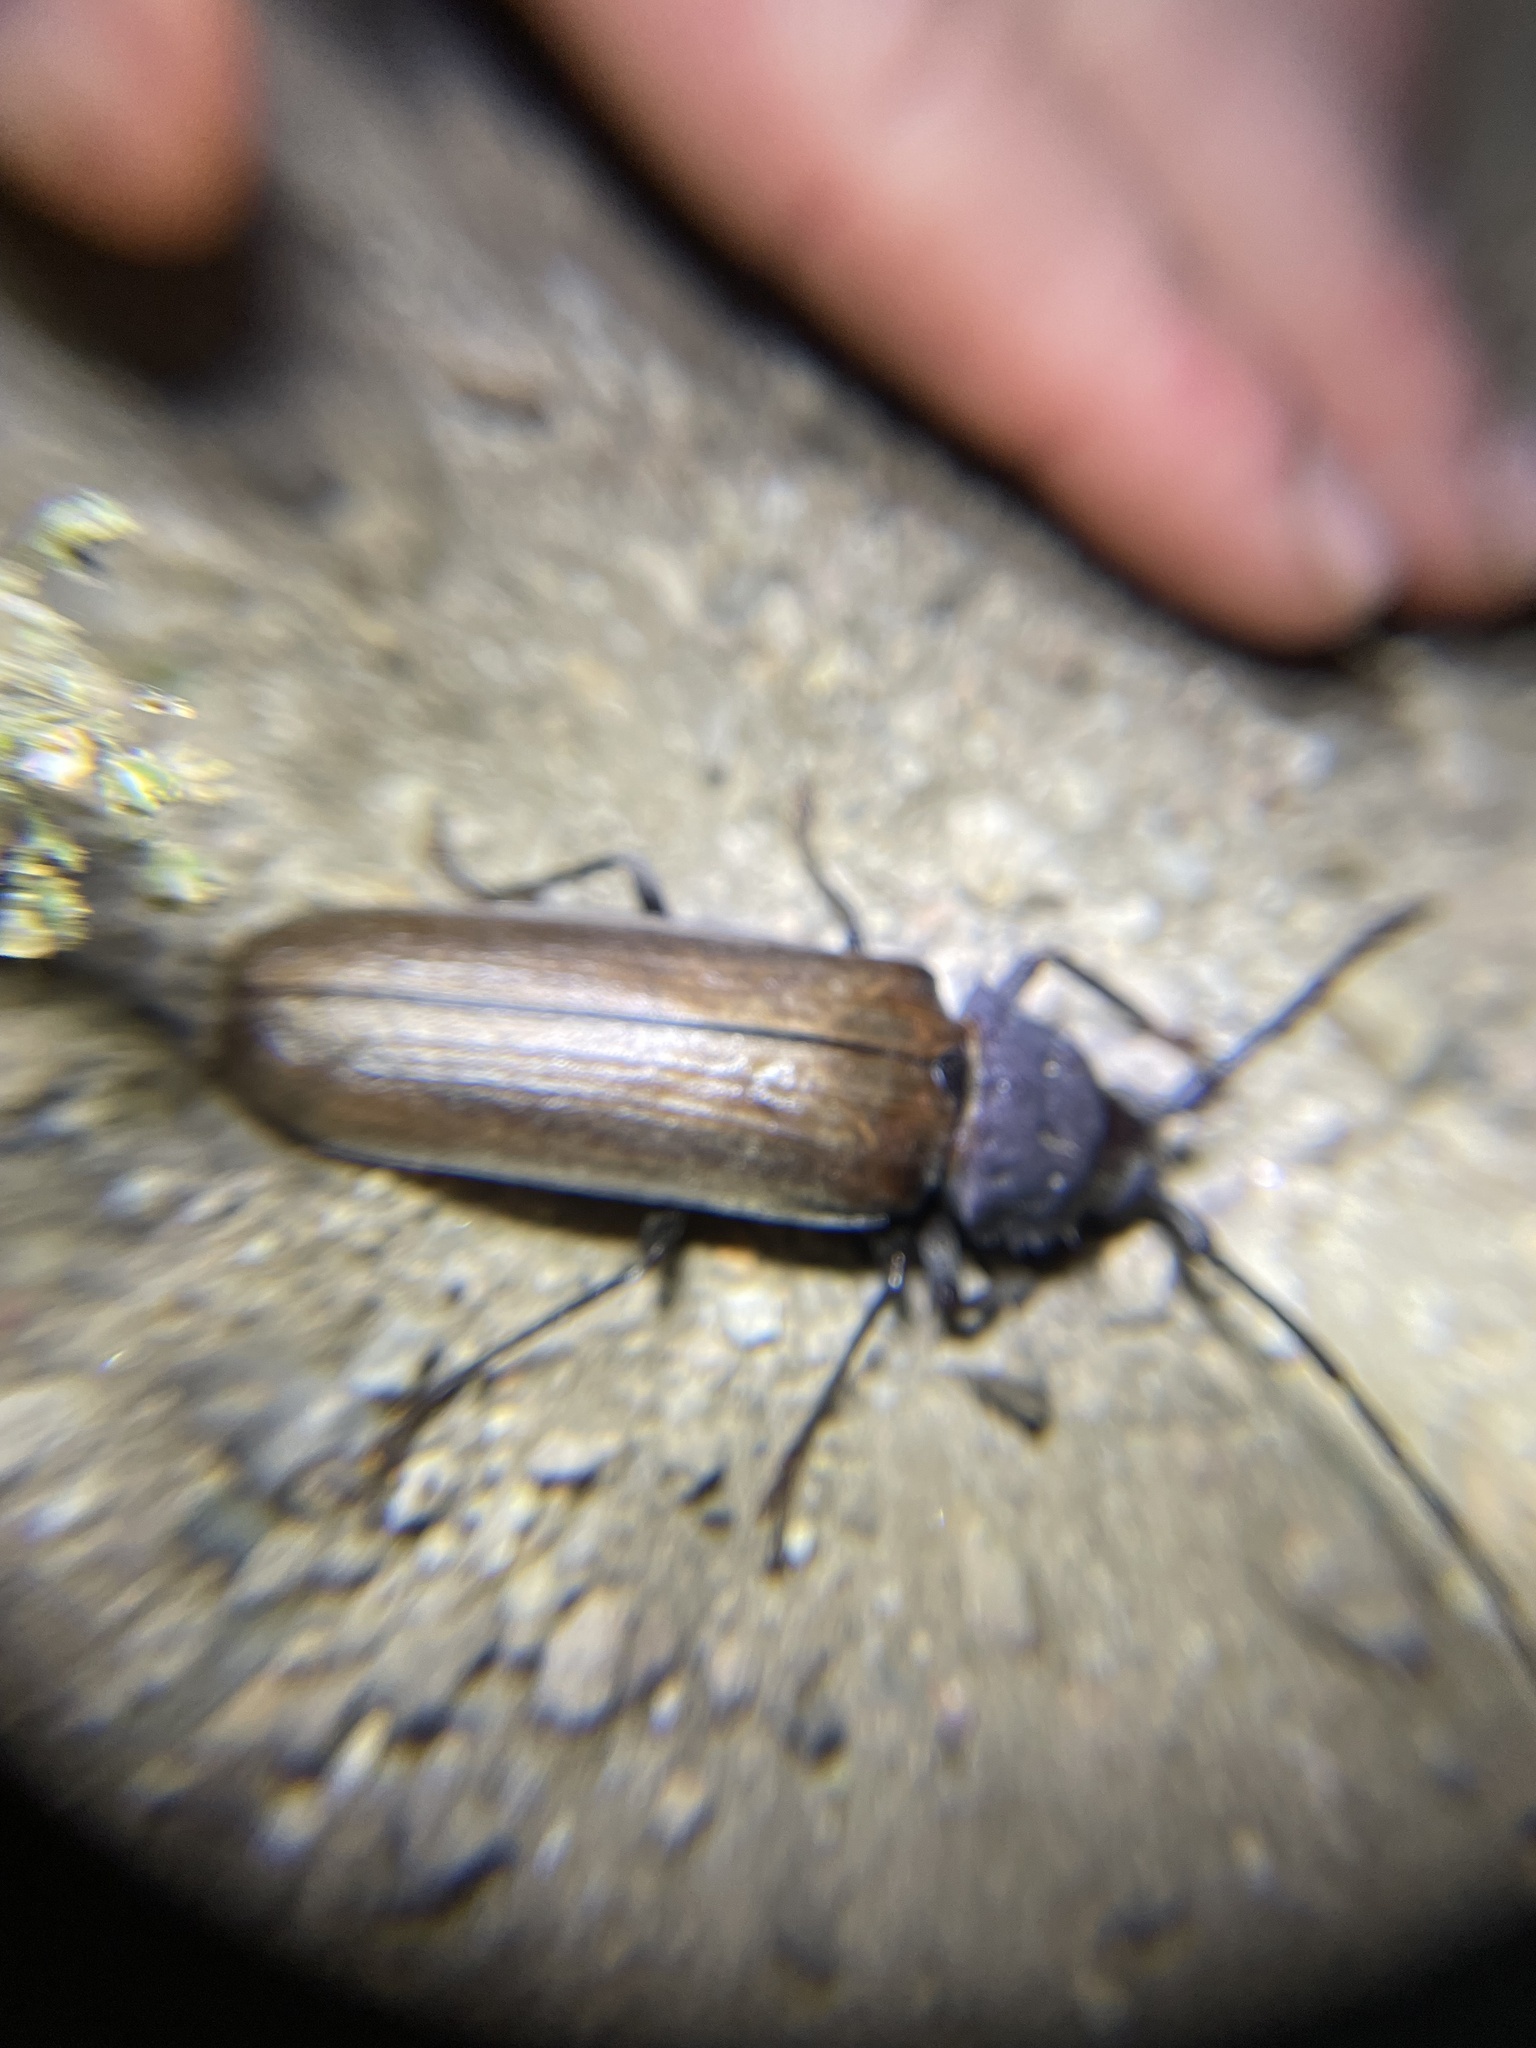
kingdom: Animalia
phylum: Arthropoda
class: Insecta
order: Coleoptera
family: Cerambycidae
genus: Trichocnemis
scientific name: Trichocnemis pauper
